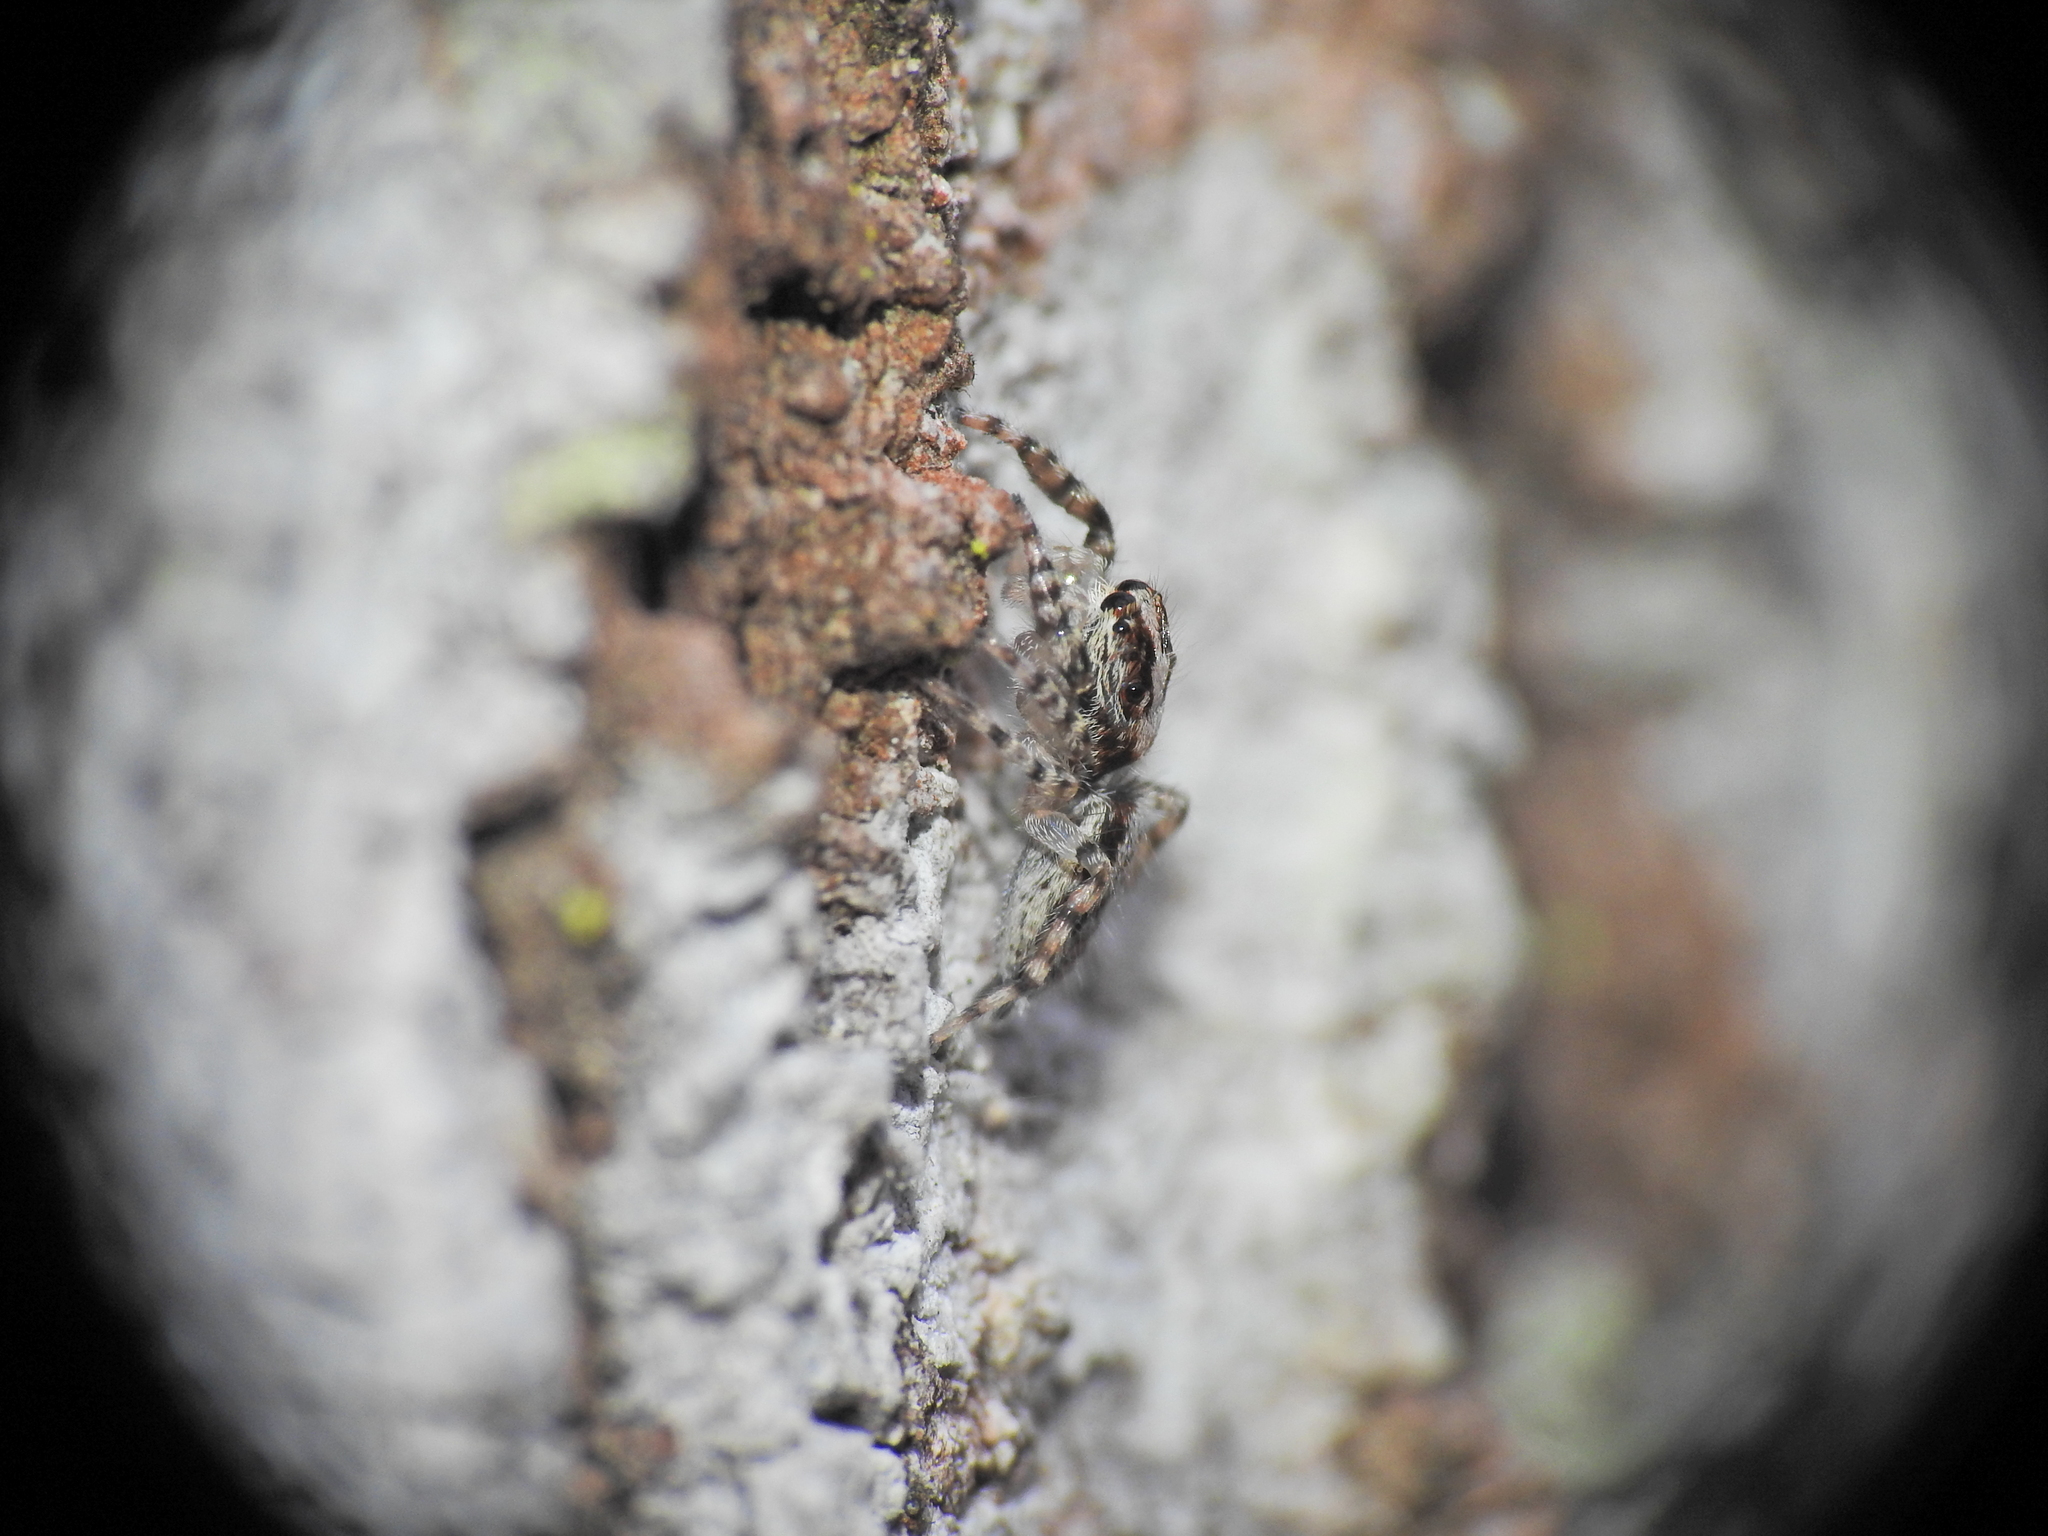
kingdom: Animalia
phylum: Arthropoda
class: Arachnida
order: Araneae
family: Salticidae
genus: Apricia
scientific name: Apricia bracteata
